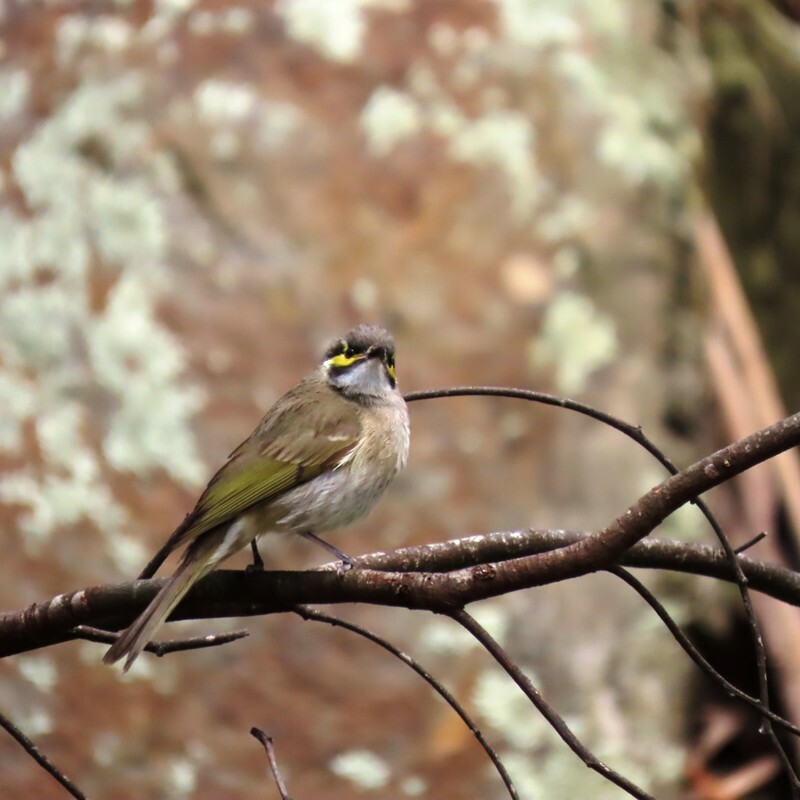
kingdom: Animalia
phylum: Chordata
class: Aves
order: Passeriformes
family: Meliphagidae
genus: Caligavis
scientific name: Caligavis chrysops
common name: Yellow-faced honeyeater
